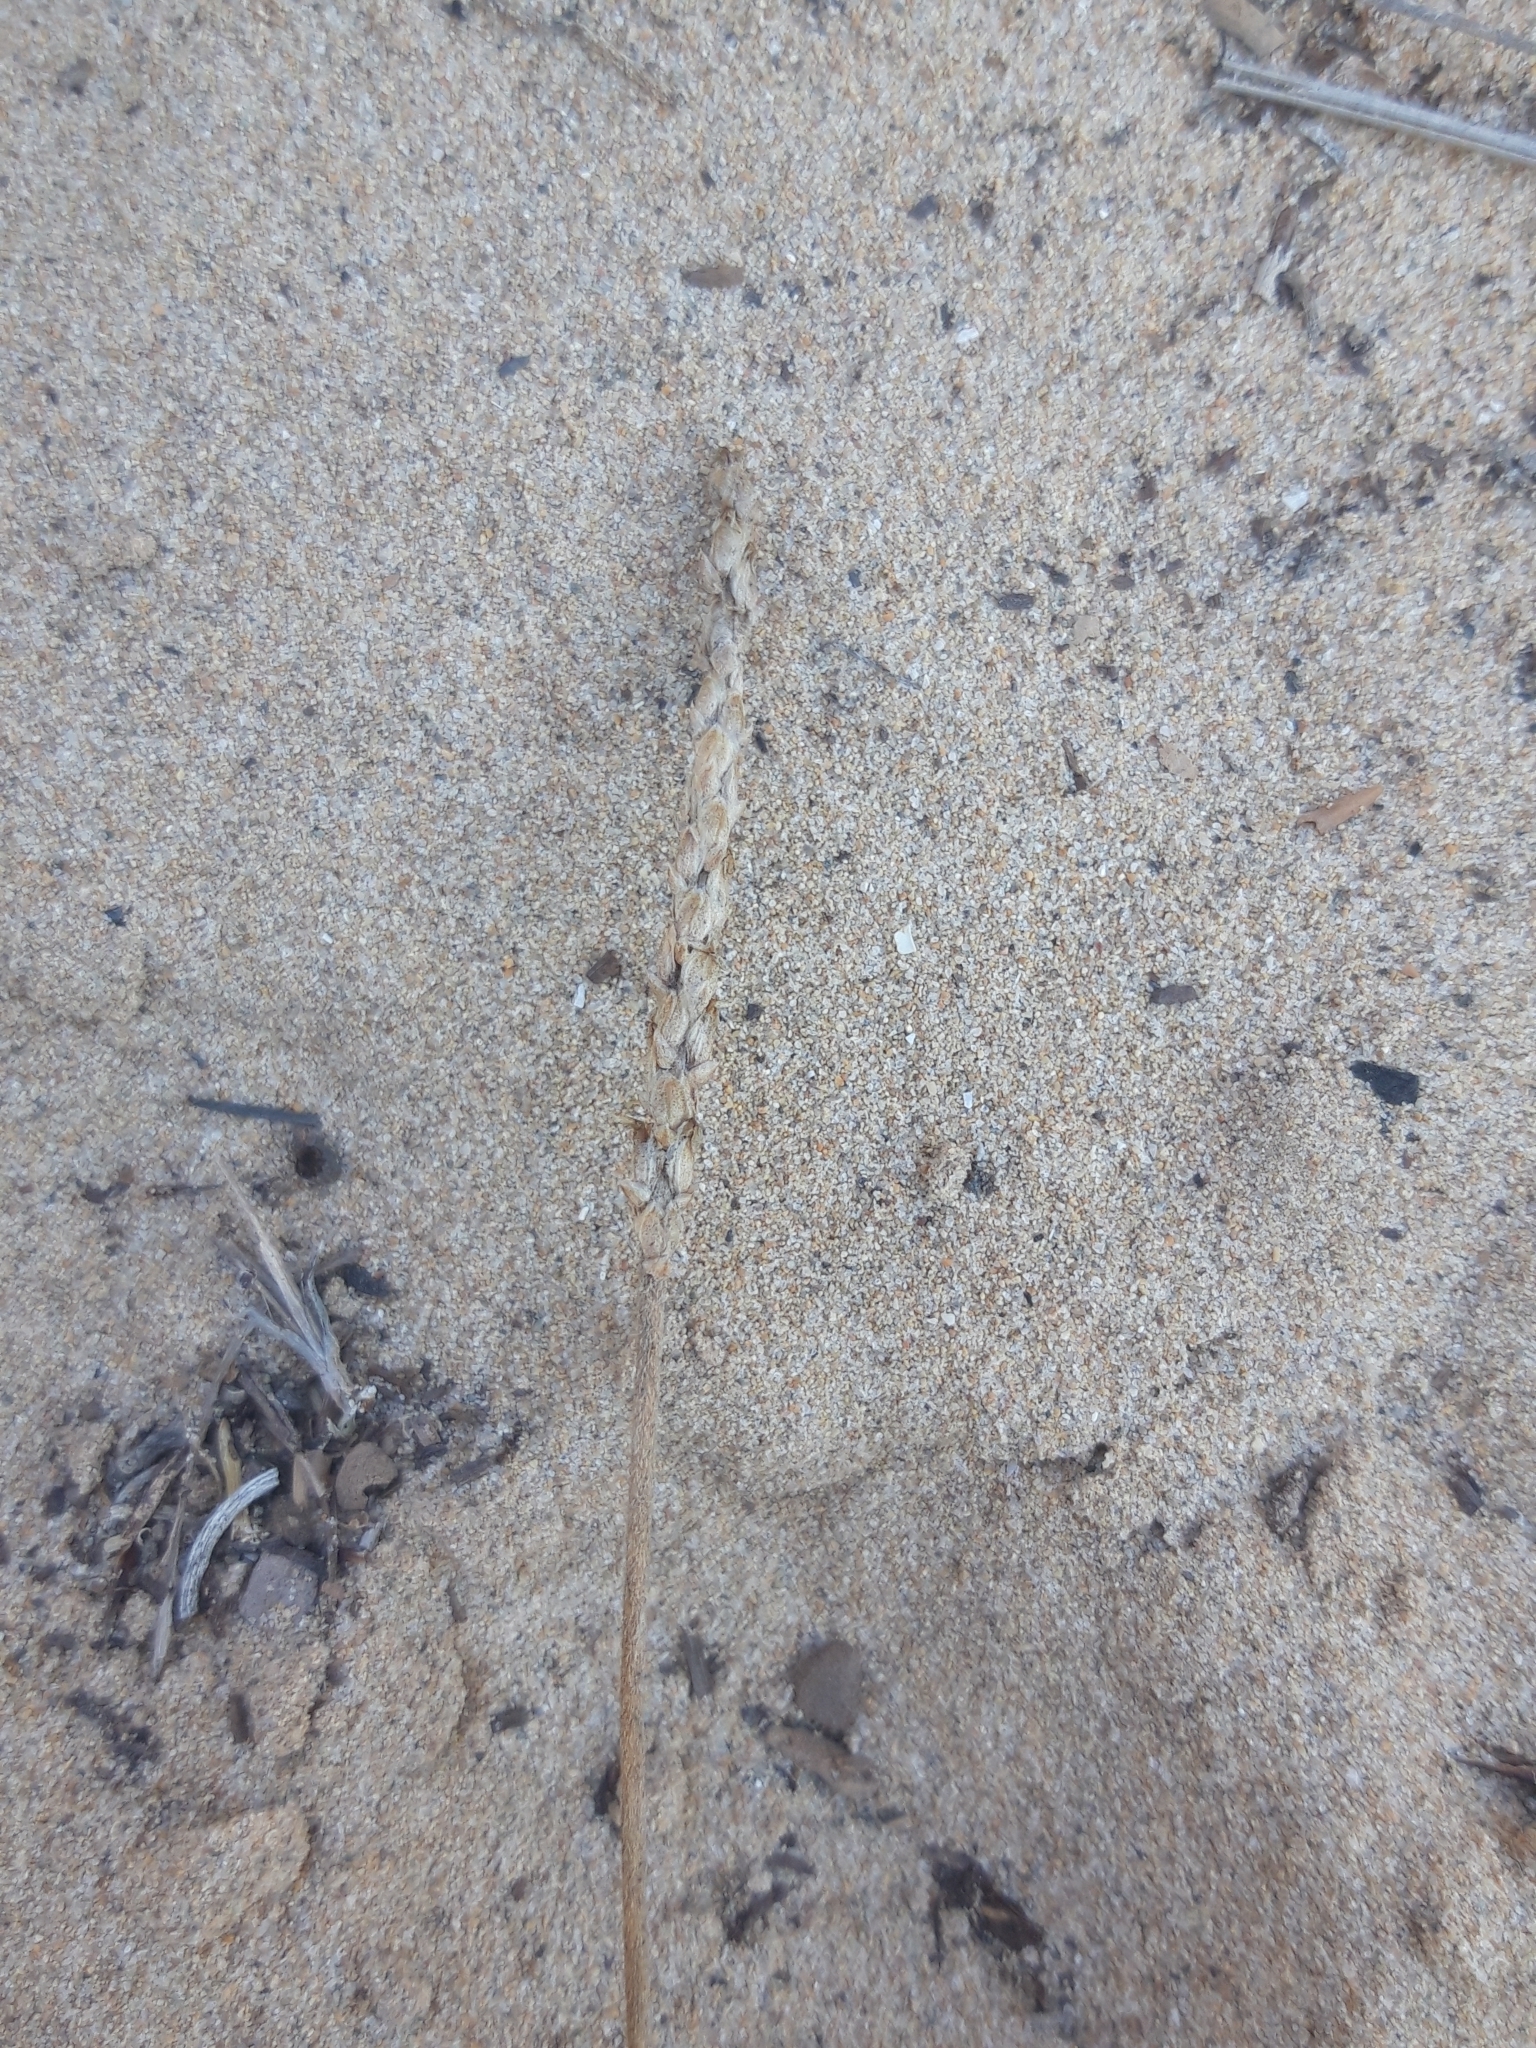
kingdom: Plantae
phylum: Tracheophyta
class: Magnoliopsida
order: Lamiales
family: Plantaginaceae
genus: Plantago
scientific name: Plantago maritima
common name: Sea plantain
